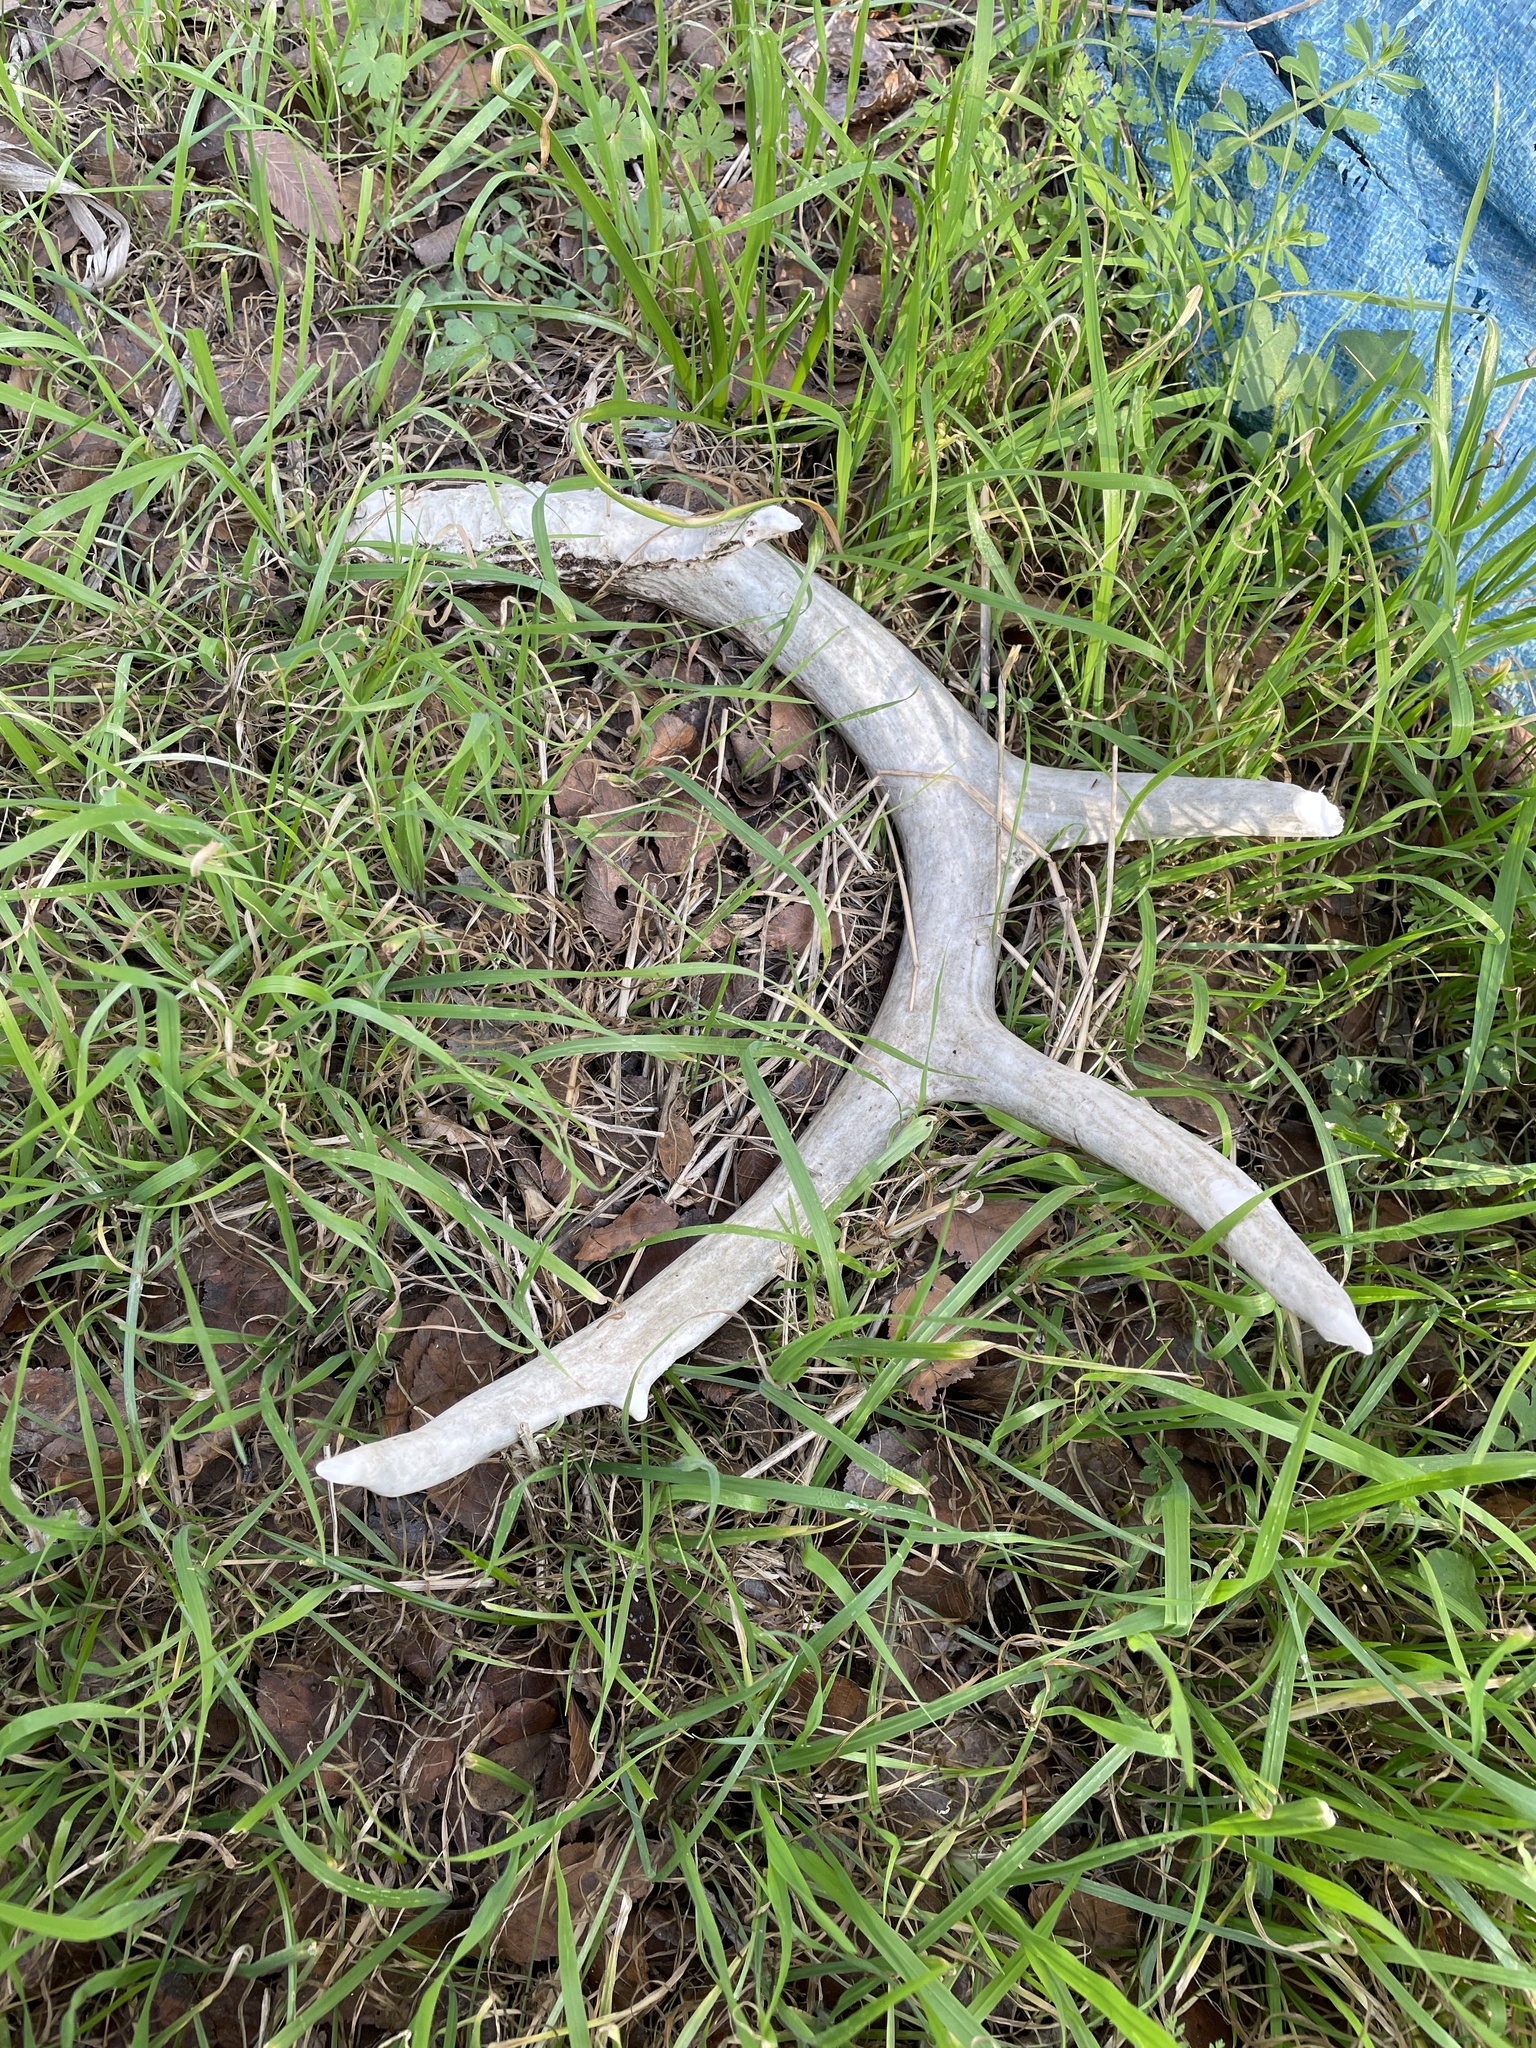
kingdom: Animalia
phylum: Chordata
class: Mammalia
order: Artiodactyla
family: Cervidae
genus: Odocoileus
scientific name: Odocoileus virginianus
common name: White-tailed deer
